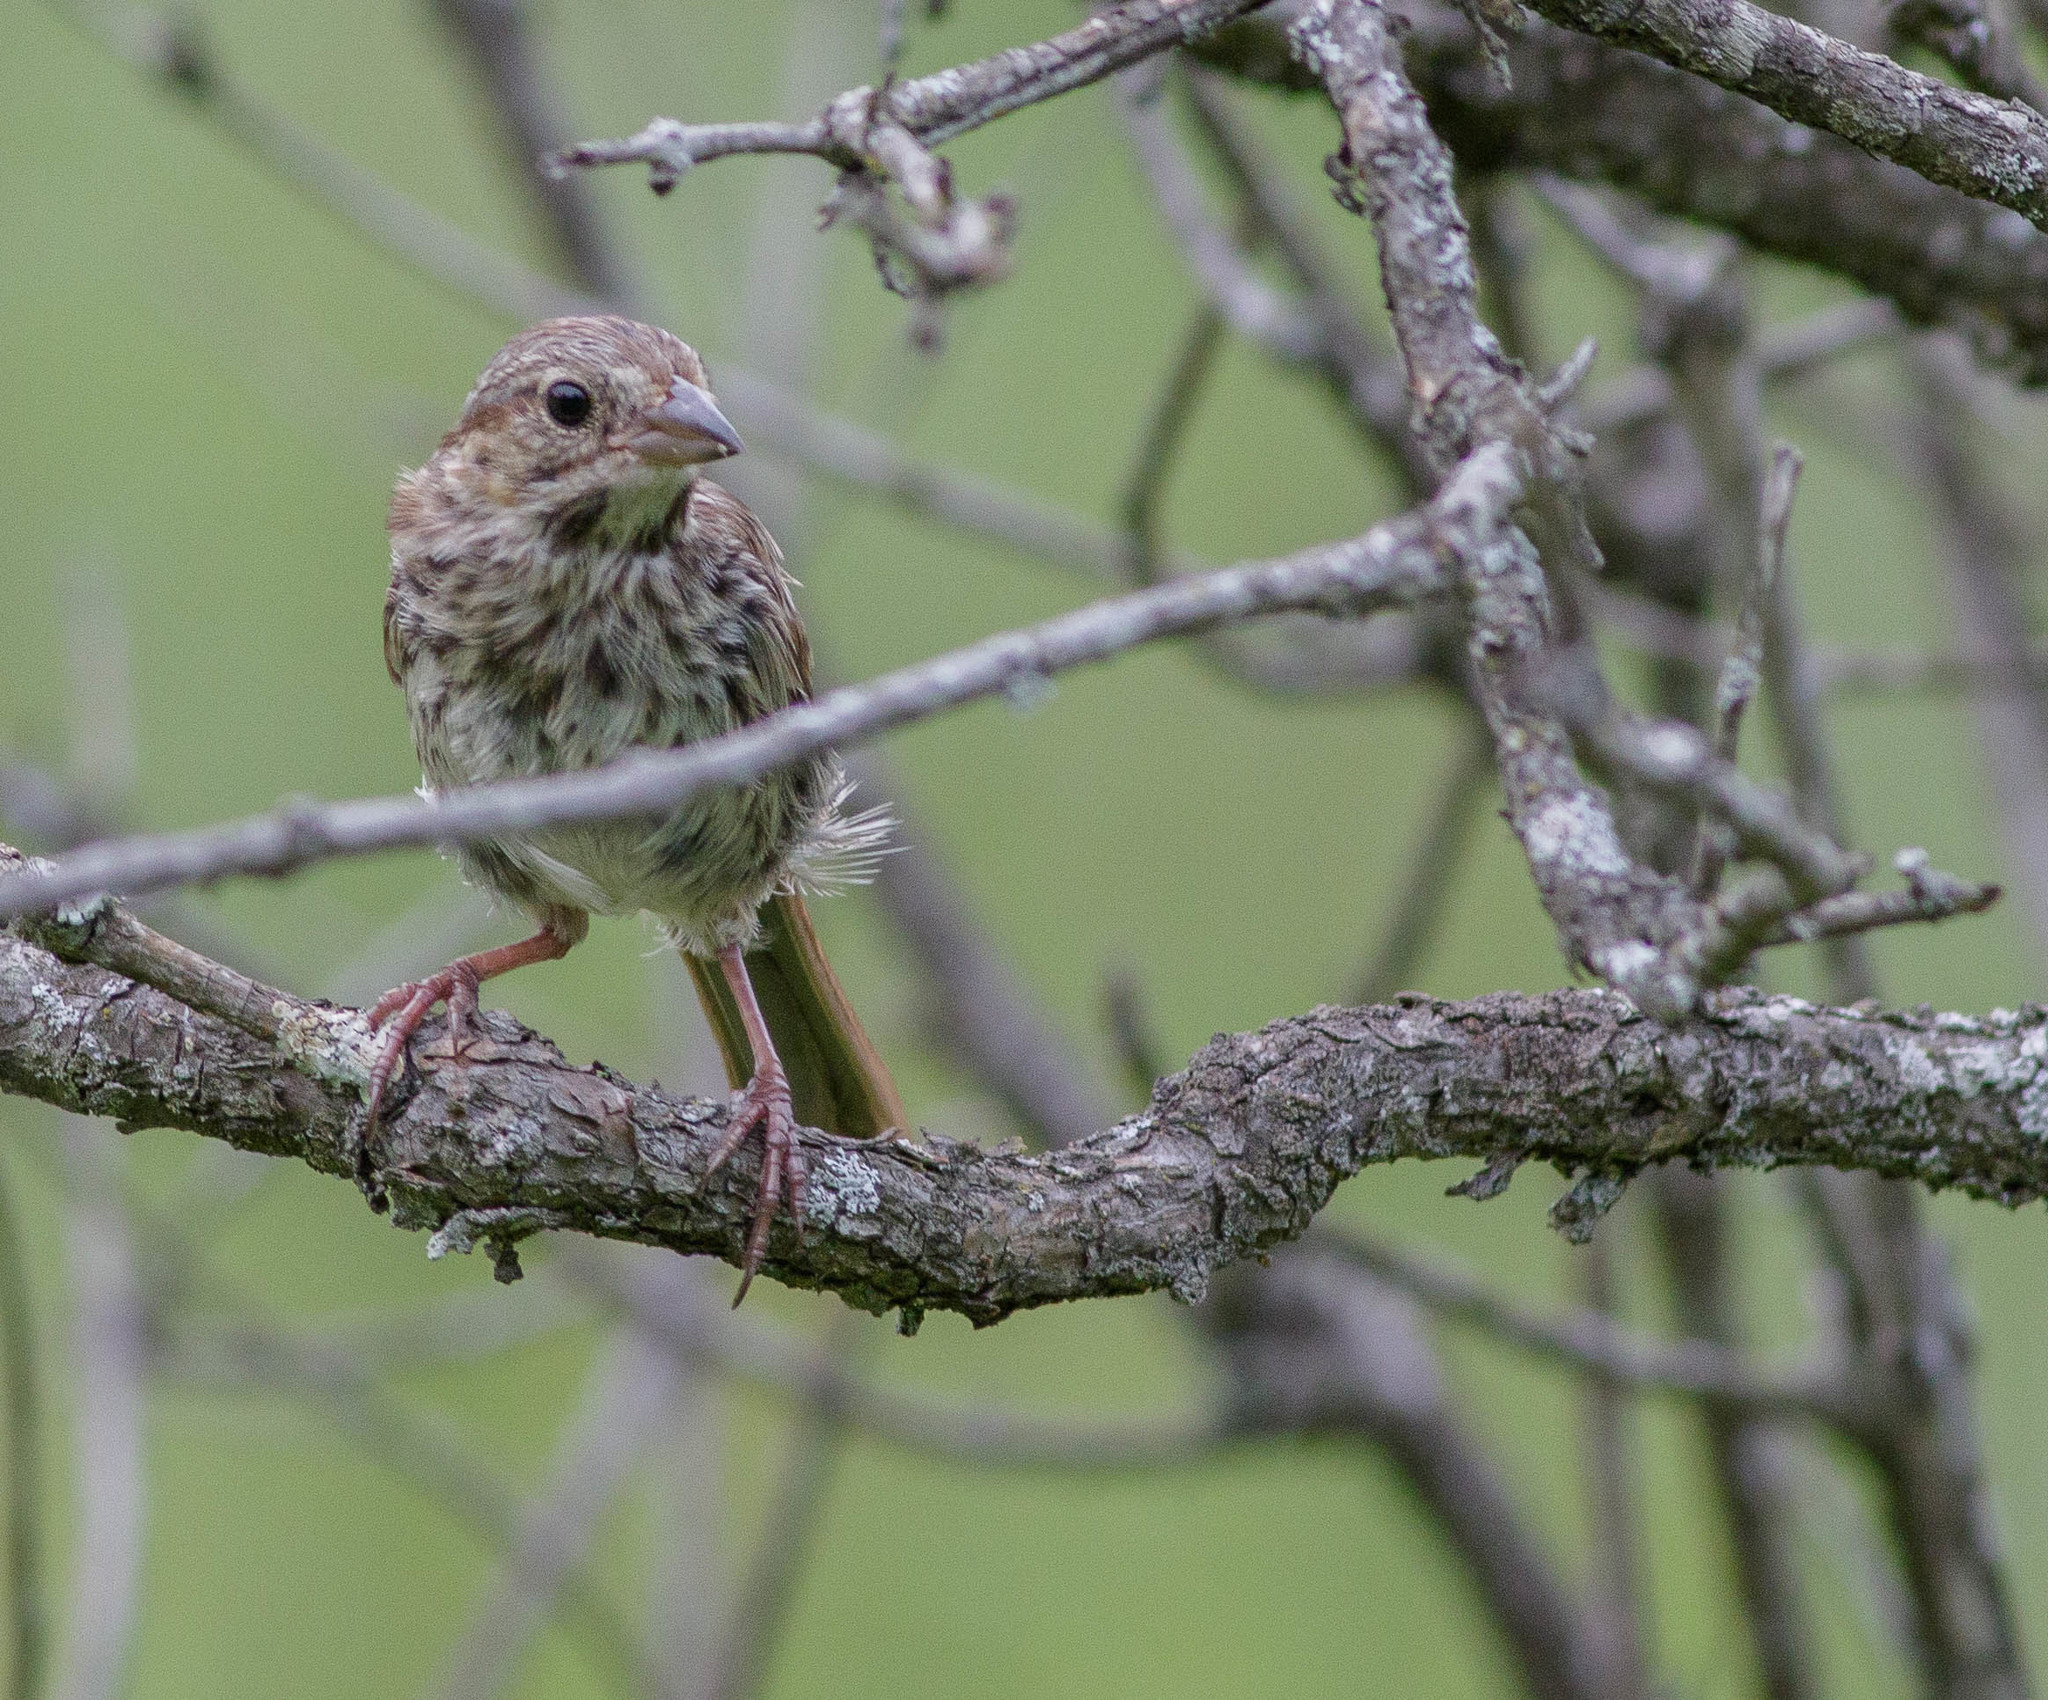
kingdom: Animalia
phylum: Chordata
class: Aves
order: Passeriformes
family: Passerellidae
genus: Melospiza
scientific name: Melospiza melodia
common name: Song sparrow
